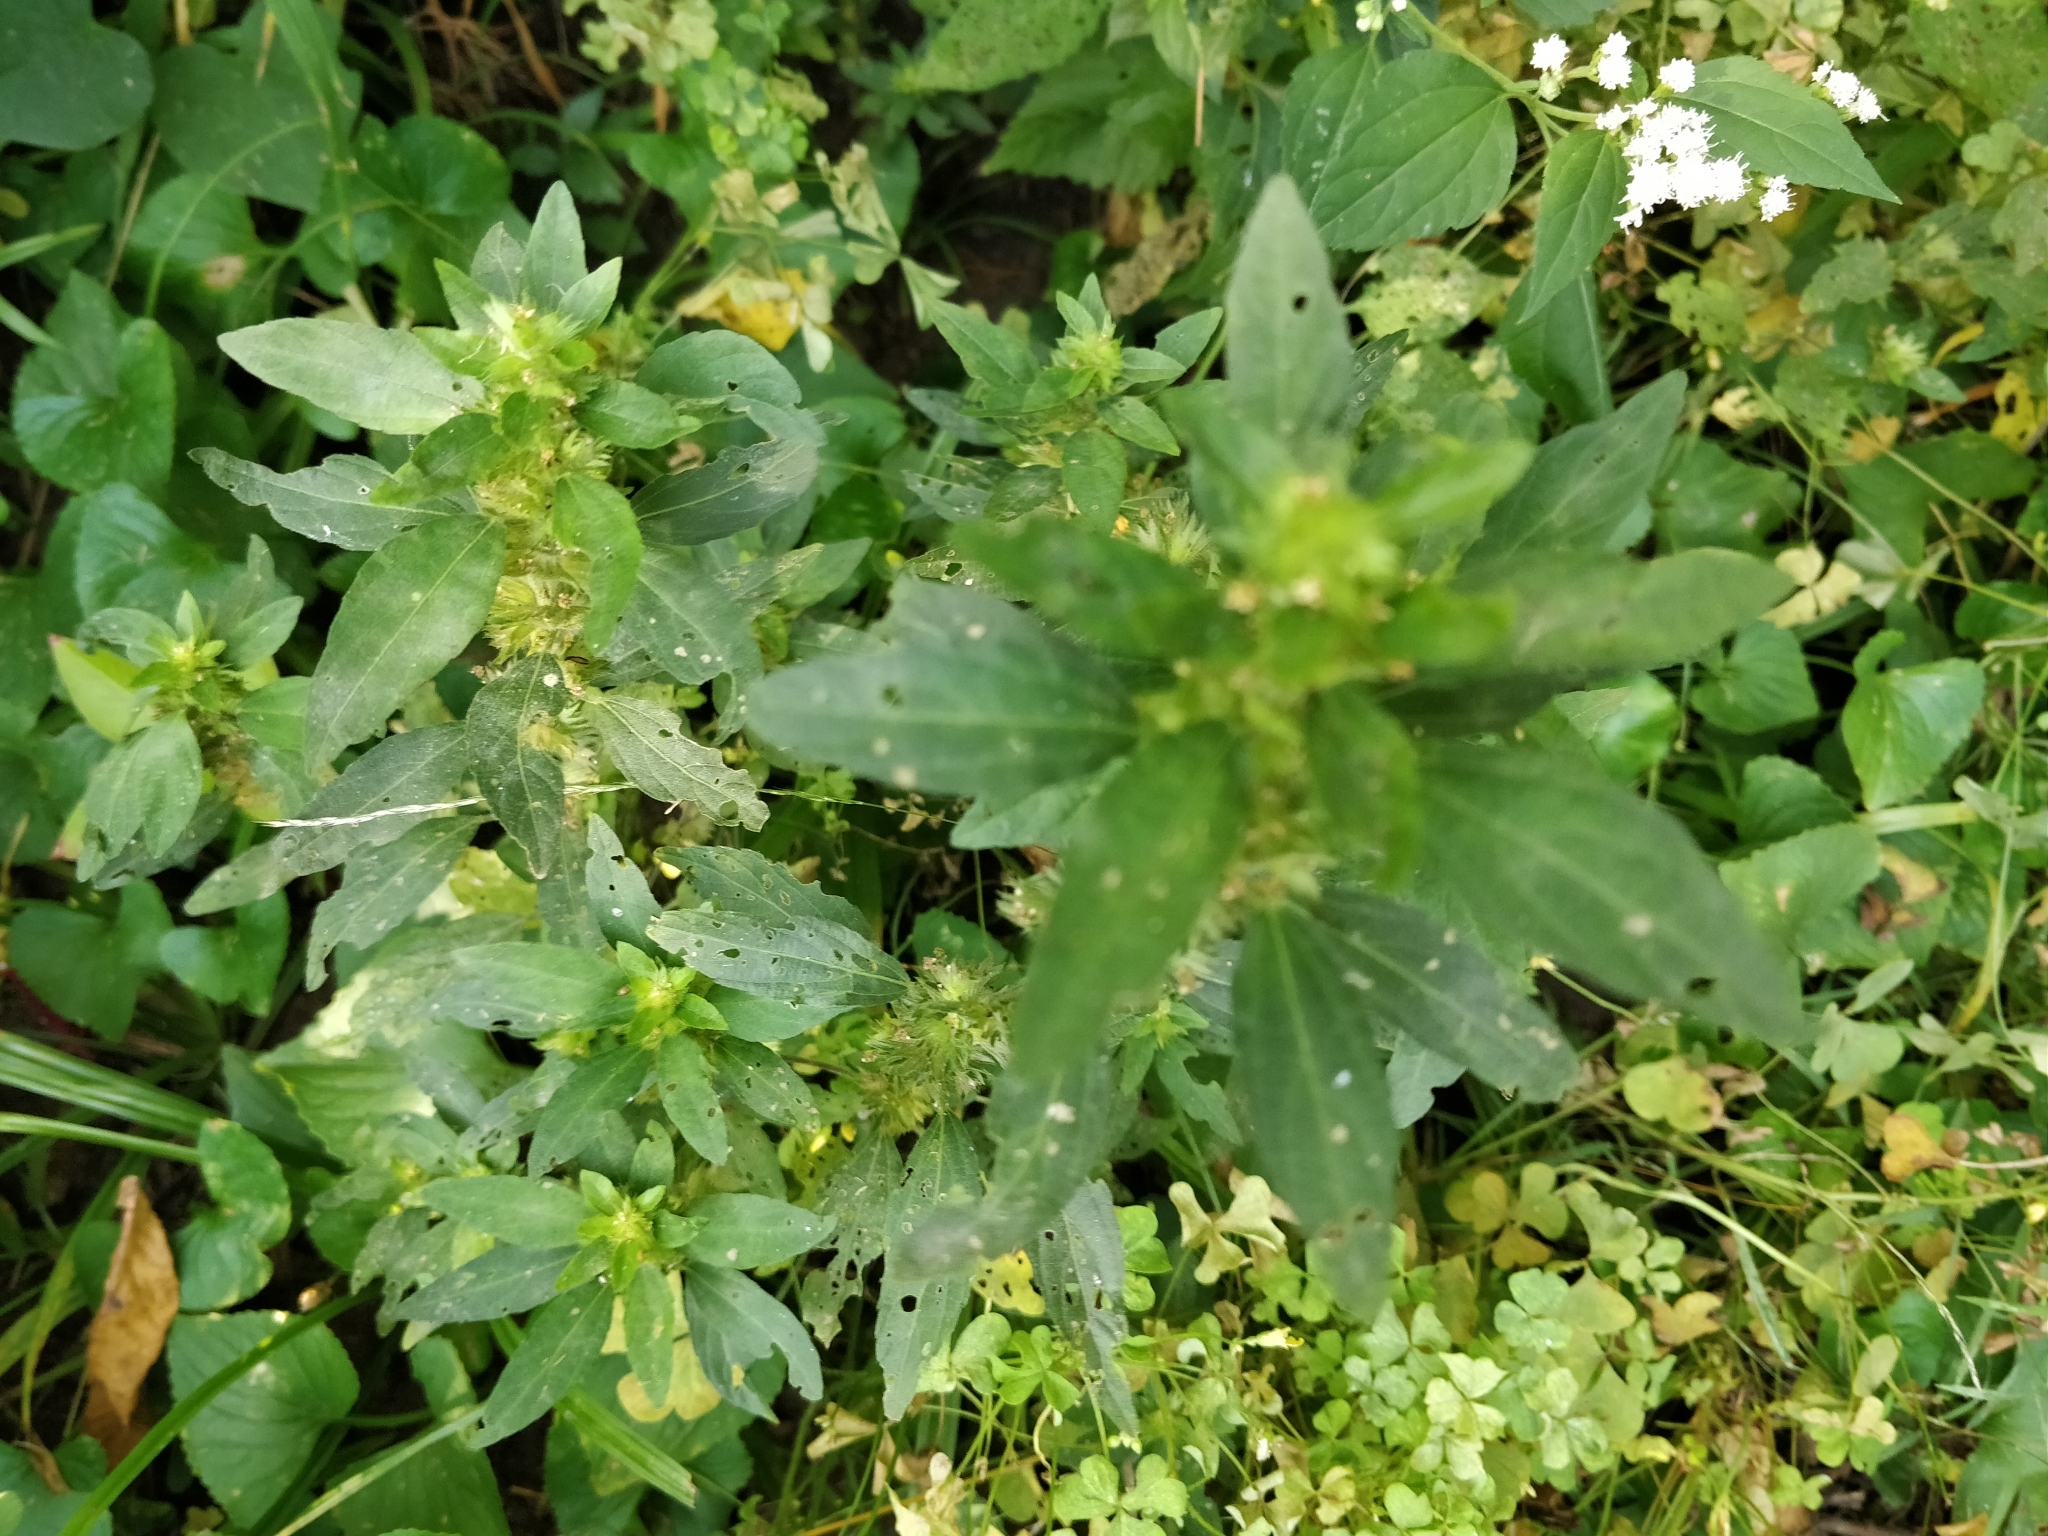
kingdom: Plantae
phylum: Tracheophyta
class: Magnoliopsida
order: Malpighiales
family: Euphorbiaceae
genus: Acalypha
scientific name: Acalypha virginica
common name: Virginia copperleaf
